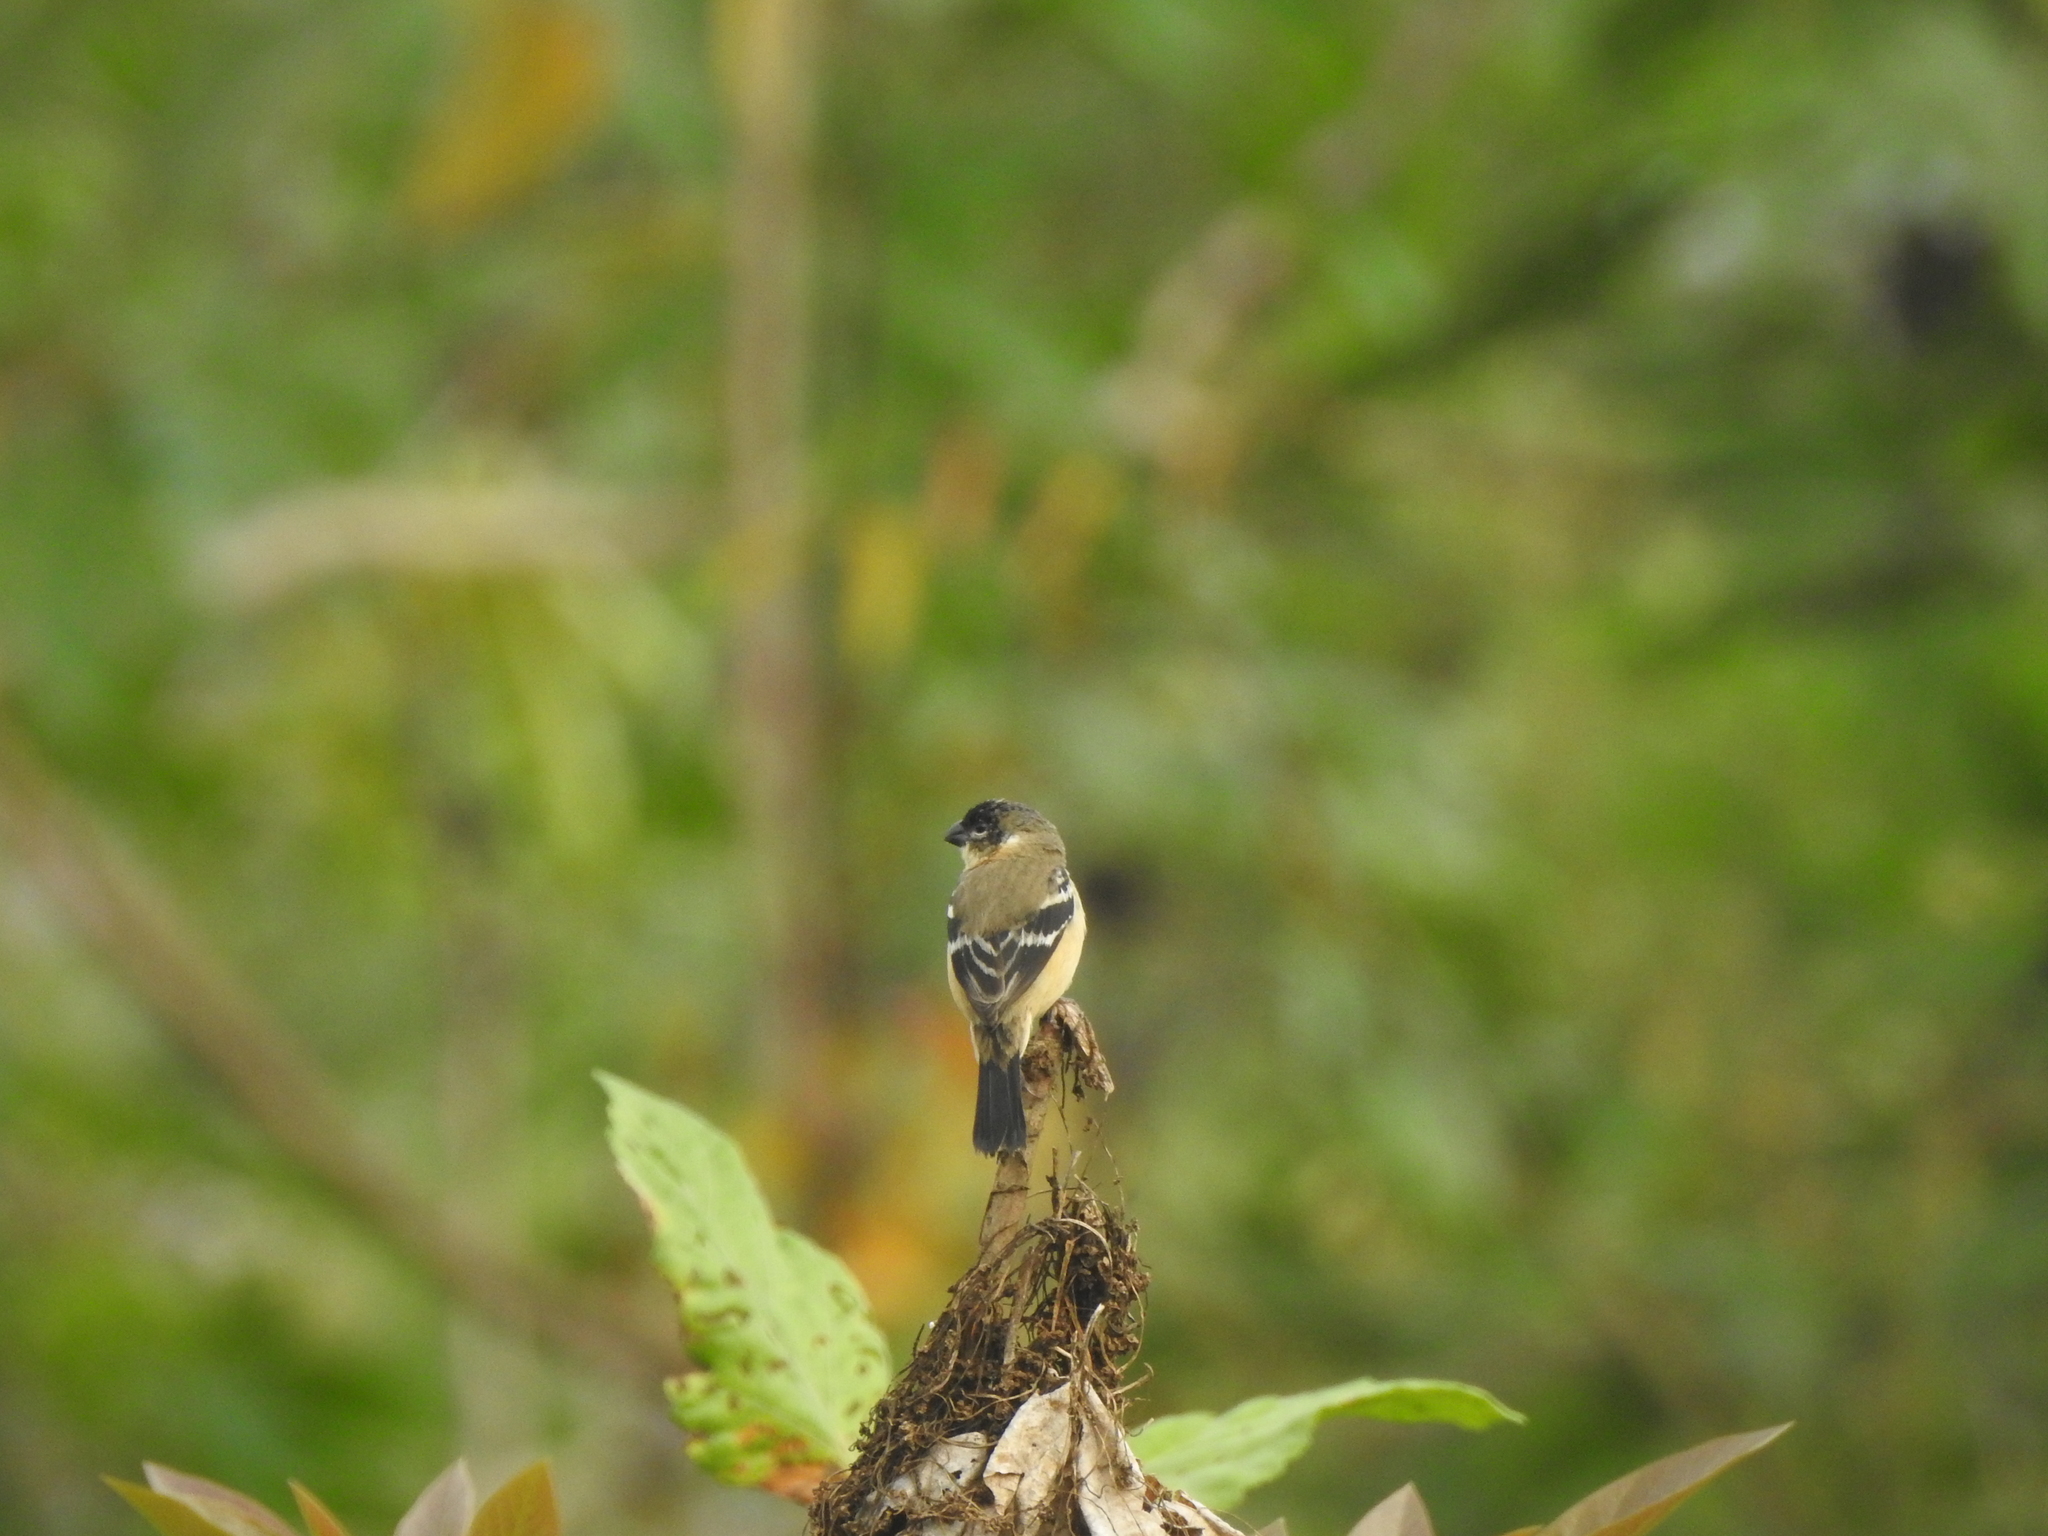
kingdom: Animalia
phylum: Chordata
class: Aves
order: Passeriformes
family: Thraupidae
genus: Sporophila
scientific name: Sporophila morelleti
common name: Morelet's seedeater
